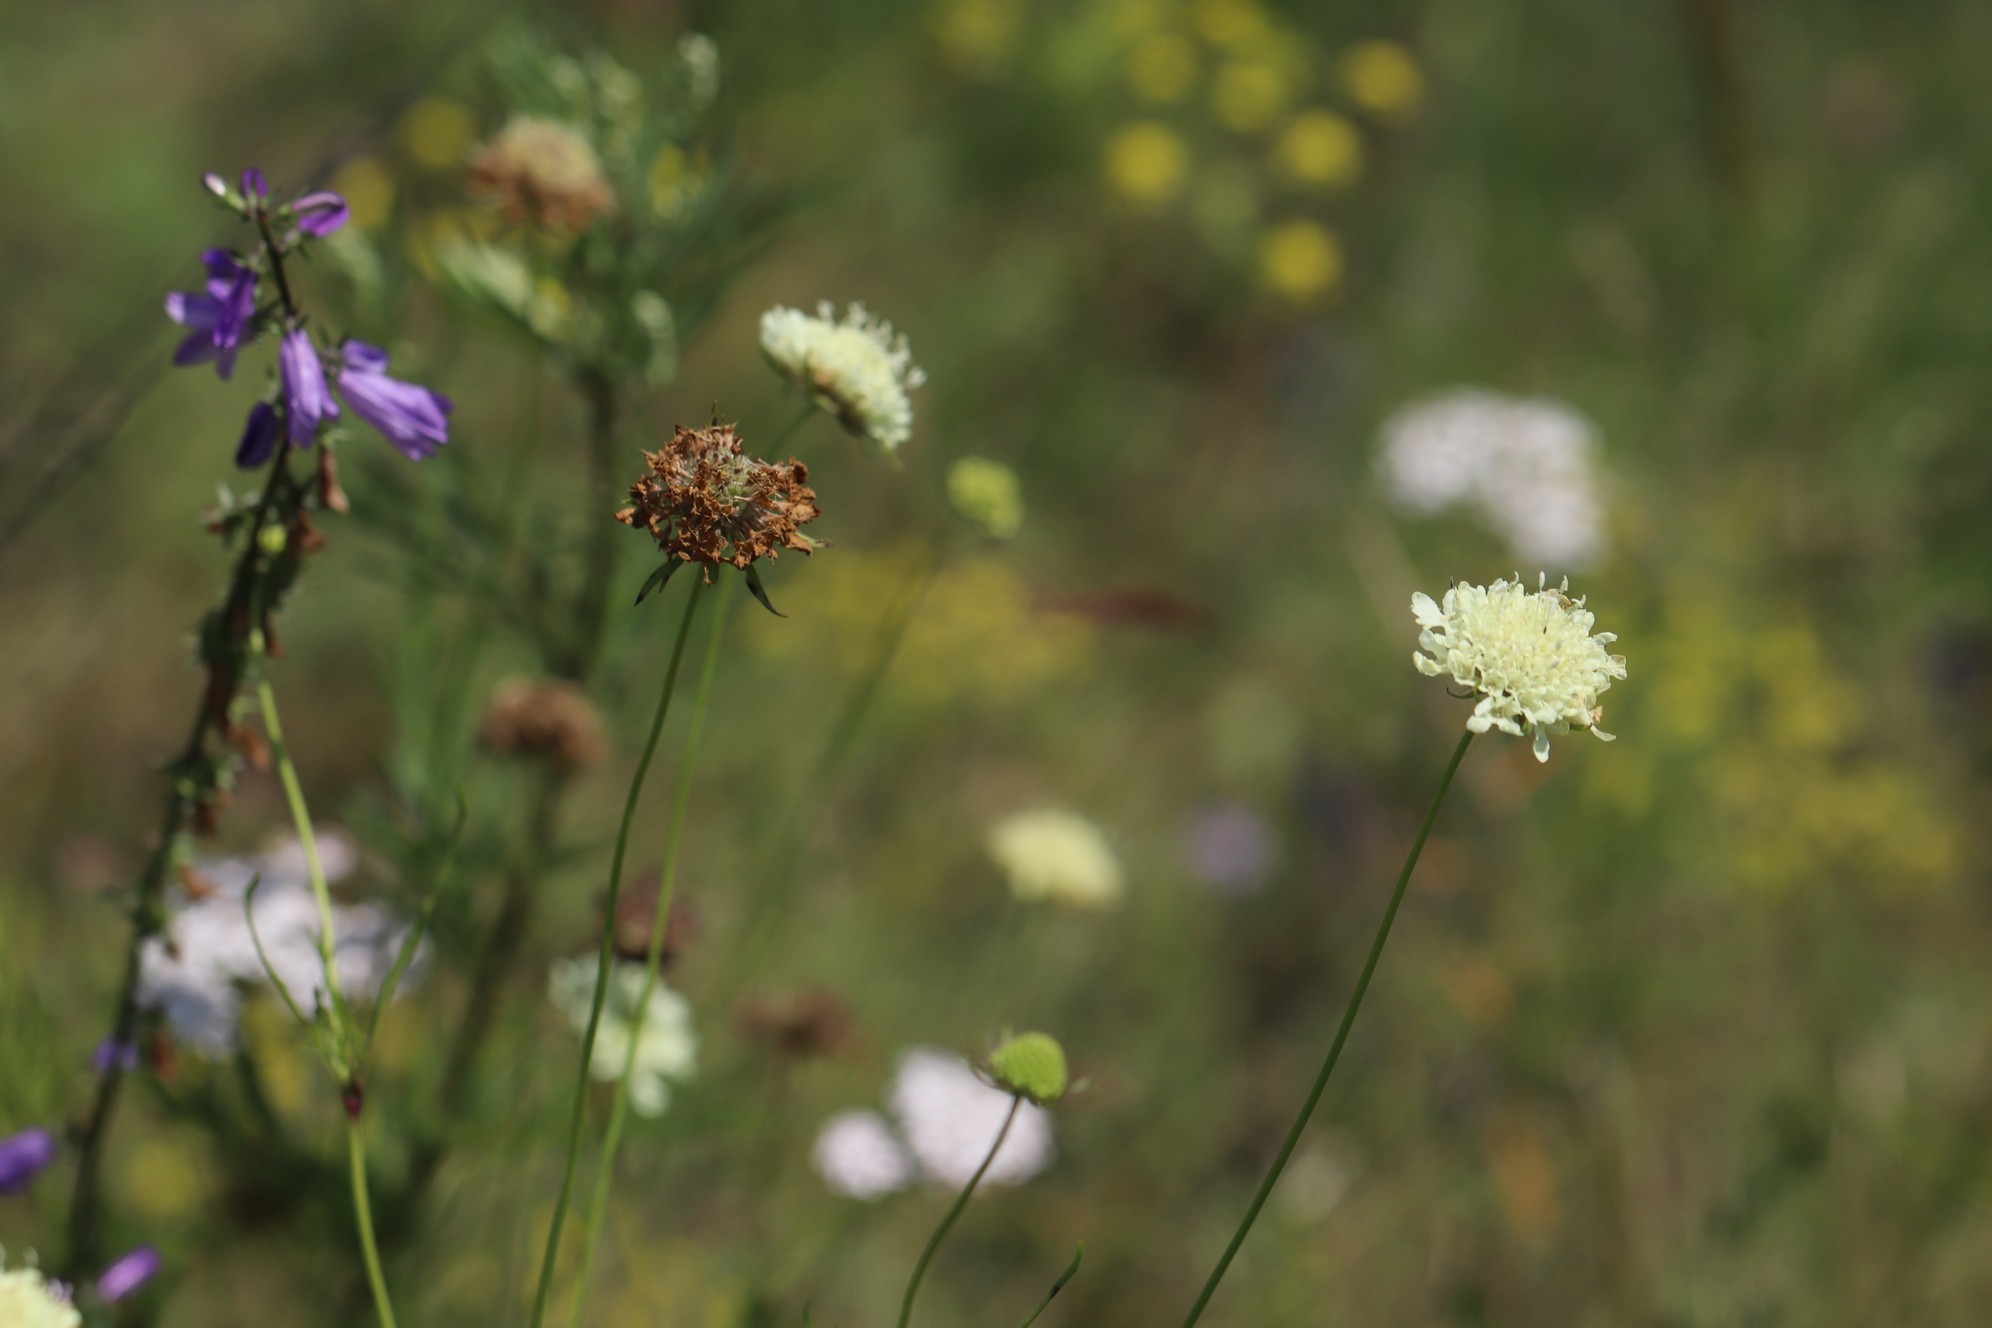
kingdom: Plantae
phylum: Tracheophyta
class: Magnoliopsida
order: Dipsacales
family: Caprifoliaceae
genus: Scabiosa
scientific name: Scabiosa ochroleuca
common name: Cream pincushions
